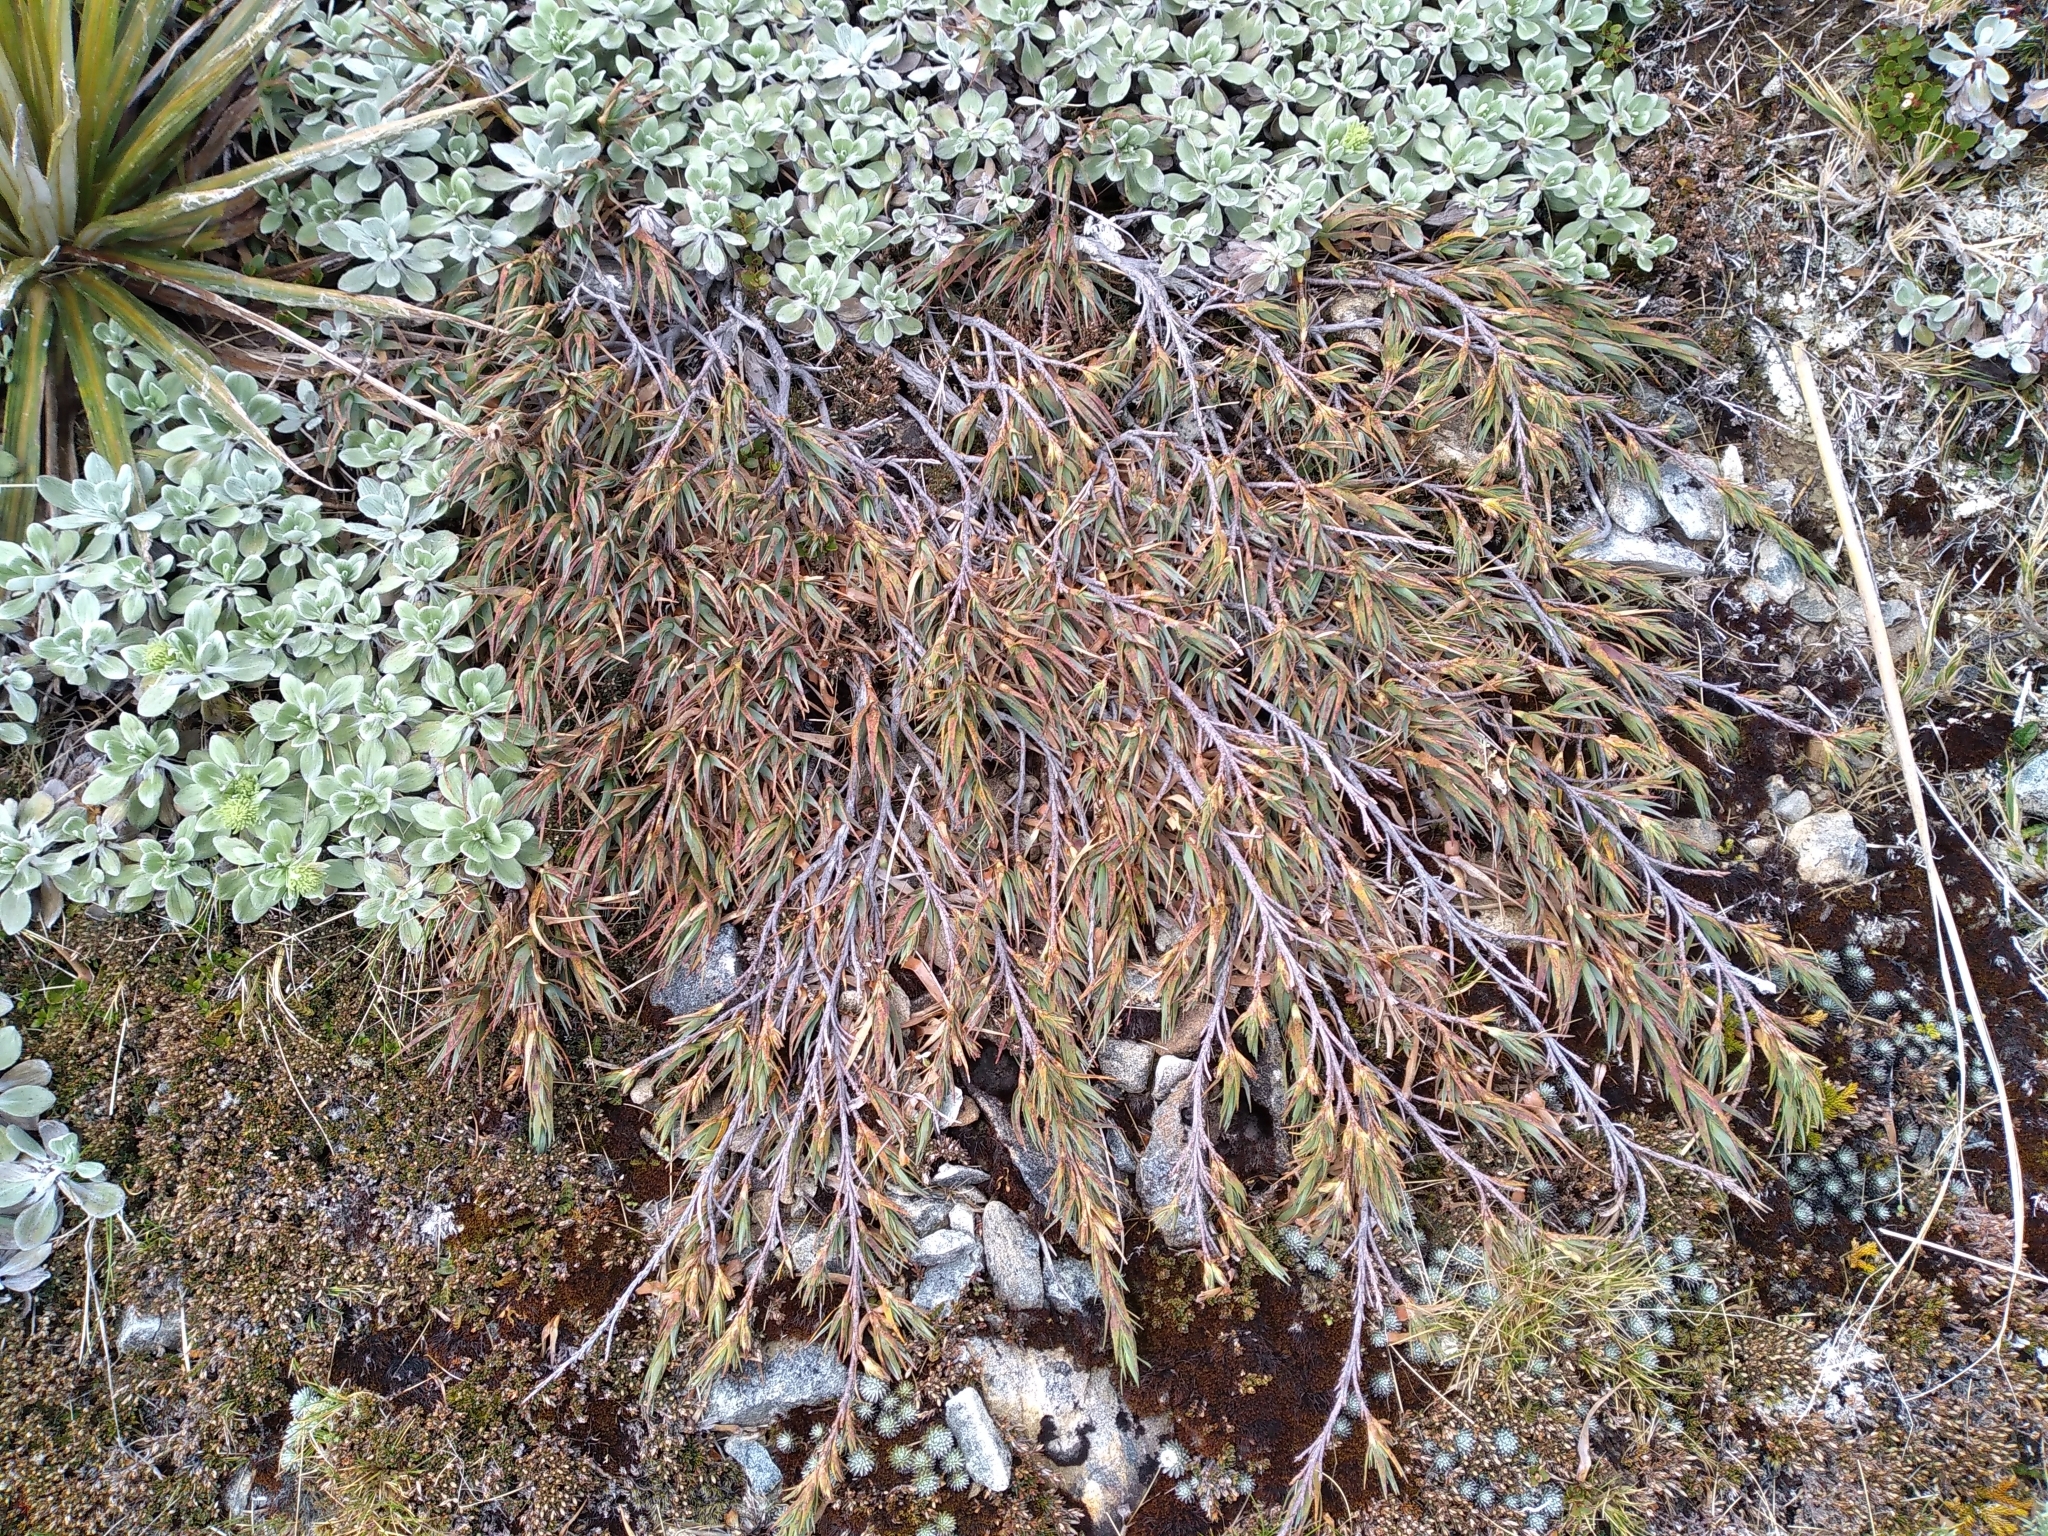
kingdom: Plantae
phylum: Tracheophyta
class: Magnoliopsida
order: Ericales
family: Ericaceae
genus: Dracophyllum
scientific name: Dracophyllum kirkii
